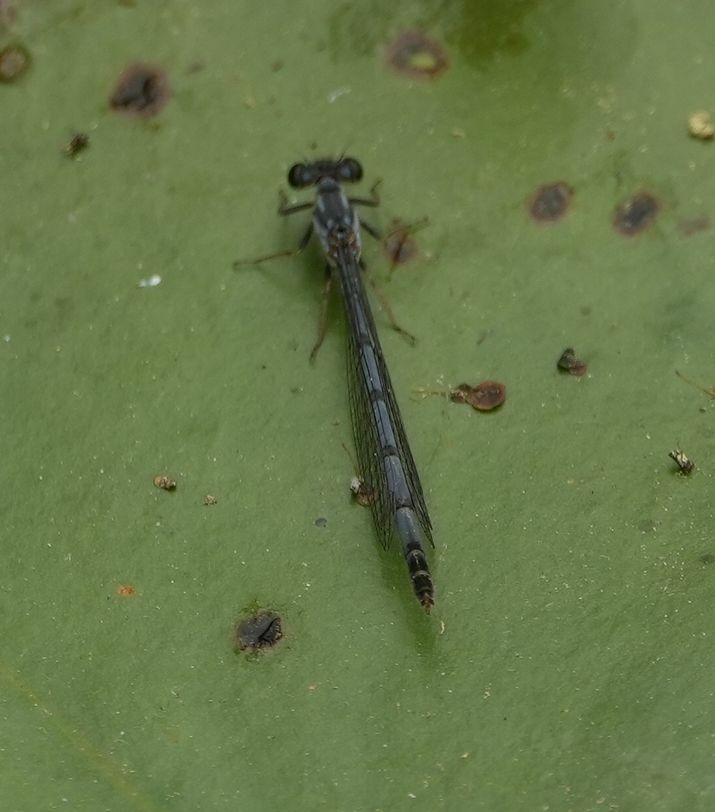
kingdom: Animalia
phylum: Arthropoda
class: Insecta
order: Odonata
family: Coenagrionidae
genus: Ischnura
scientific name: Ischnura posita
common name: Fragile forktail
